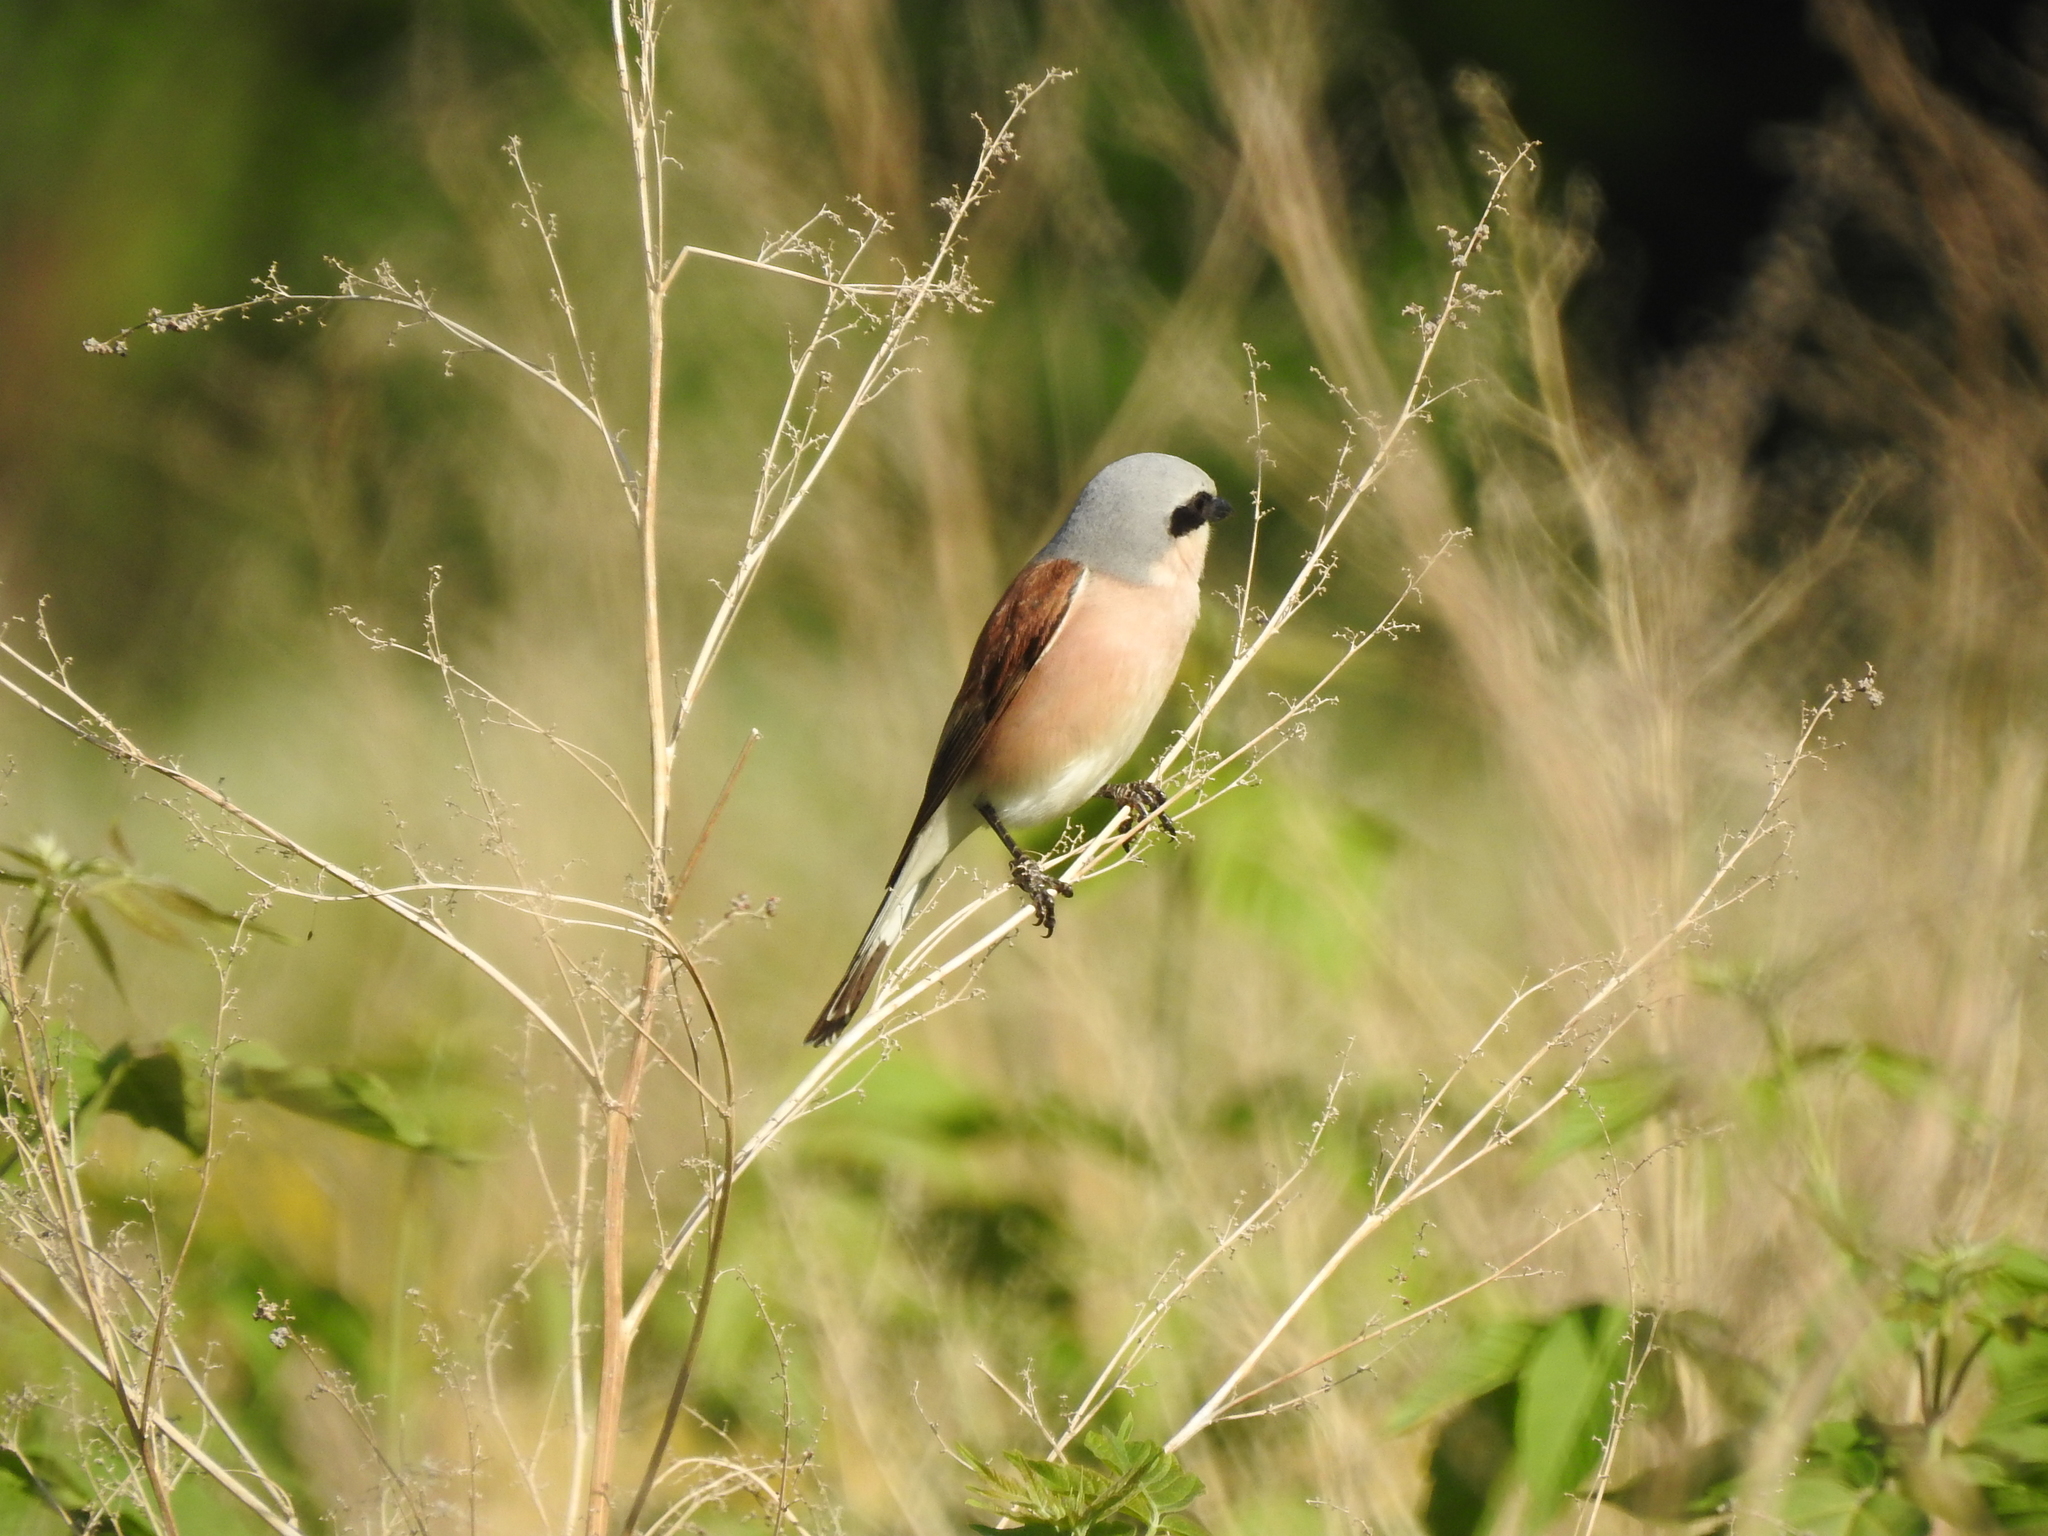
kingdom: Animalia
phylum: Chordata
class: Aves
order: Passeriformes
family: Laniidae
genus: Lanius
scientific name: Lanius collurio
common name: Red-backed shrike
